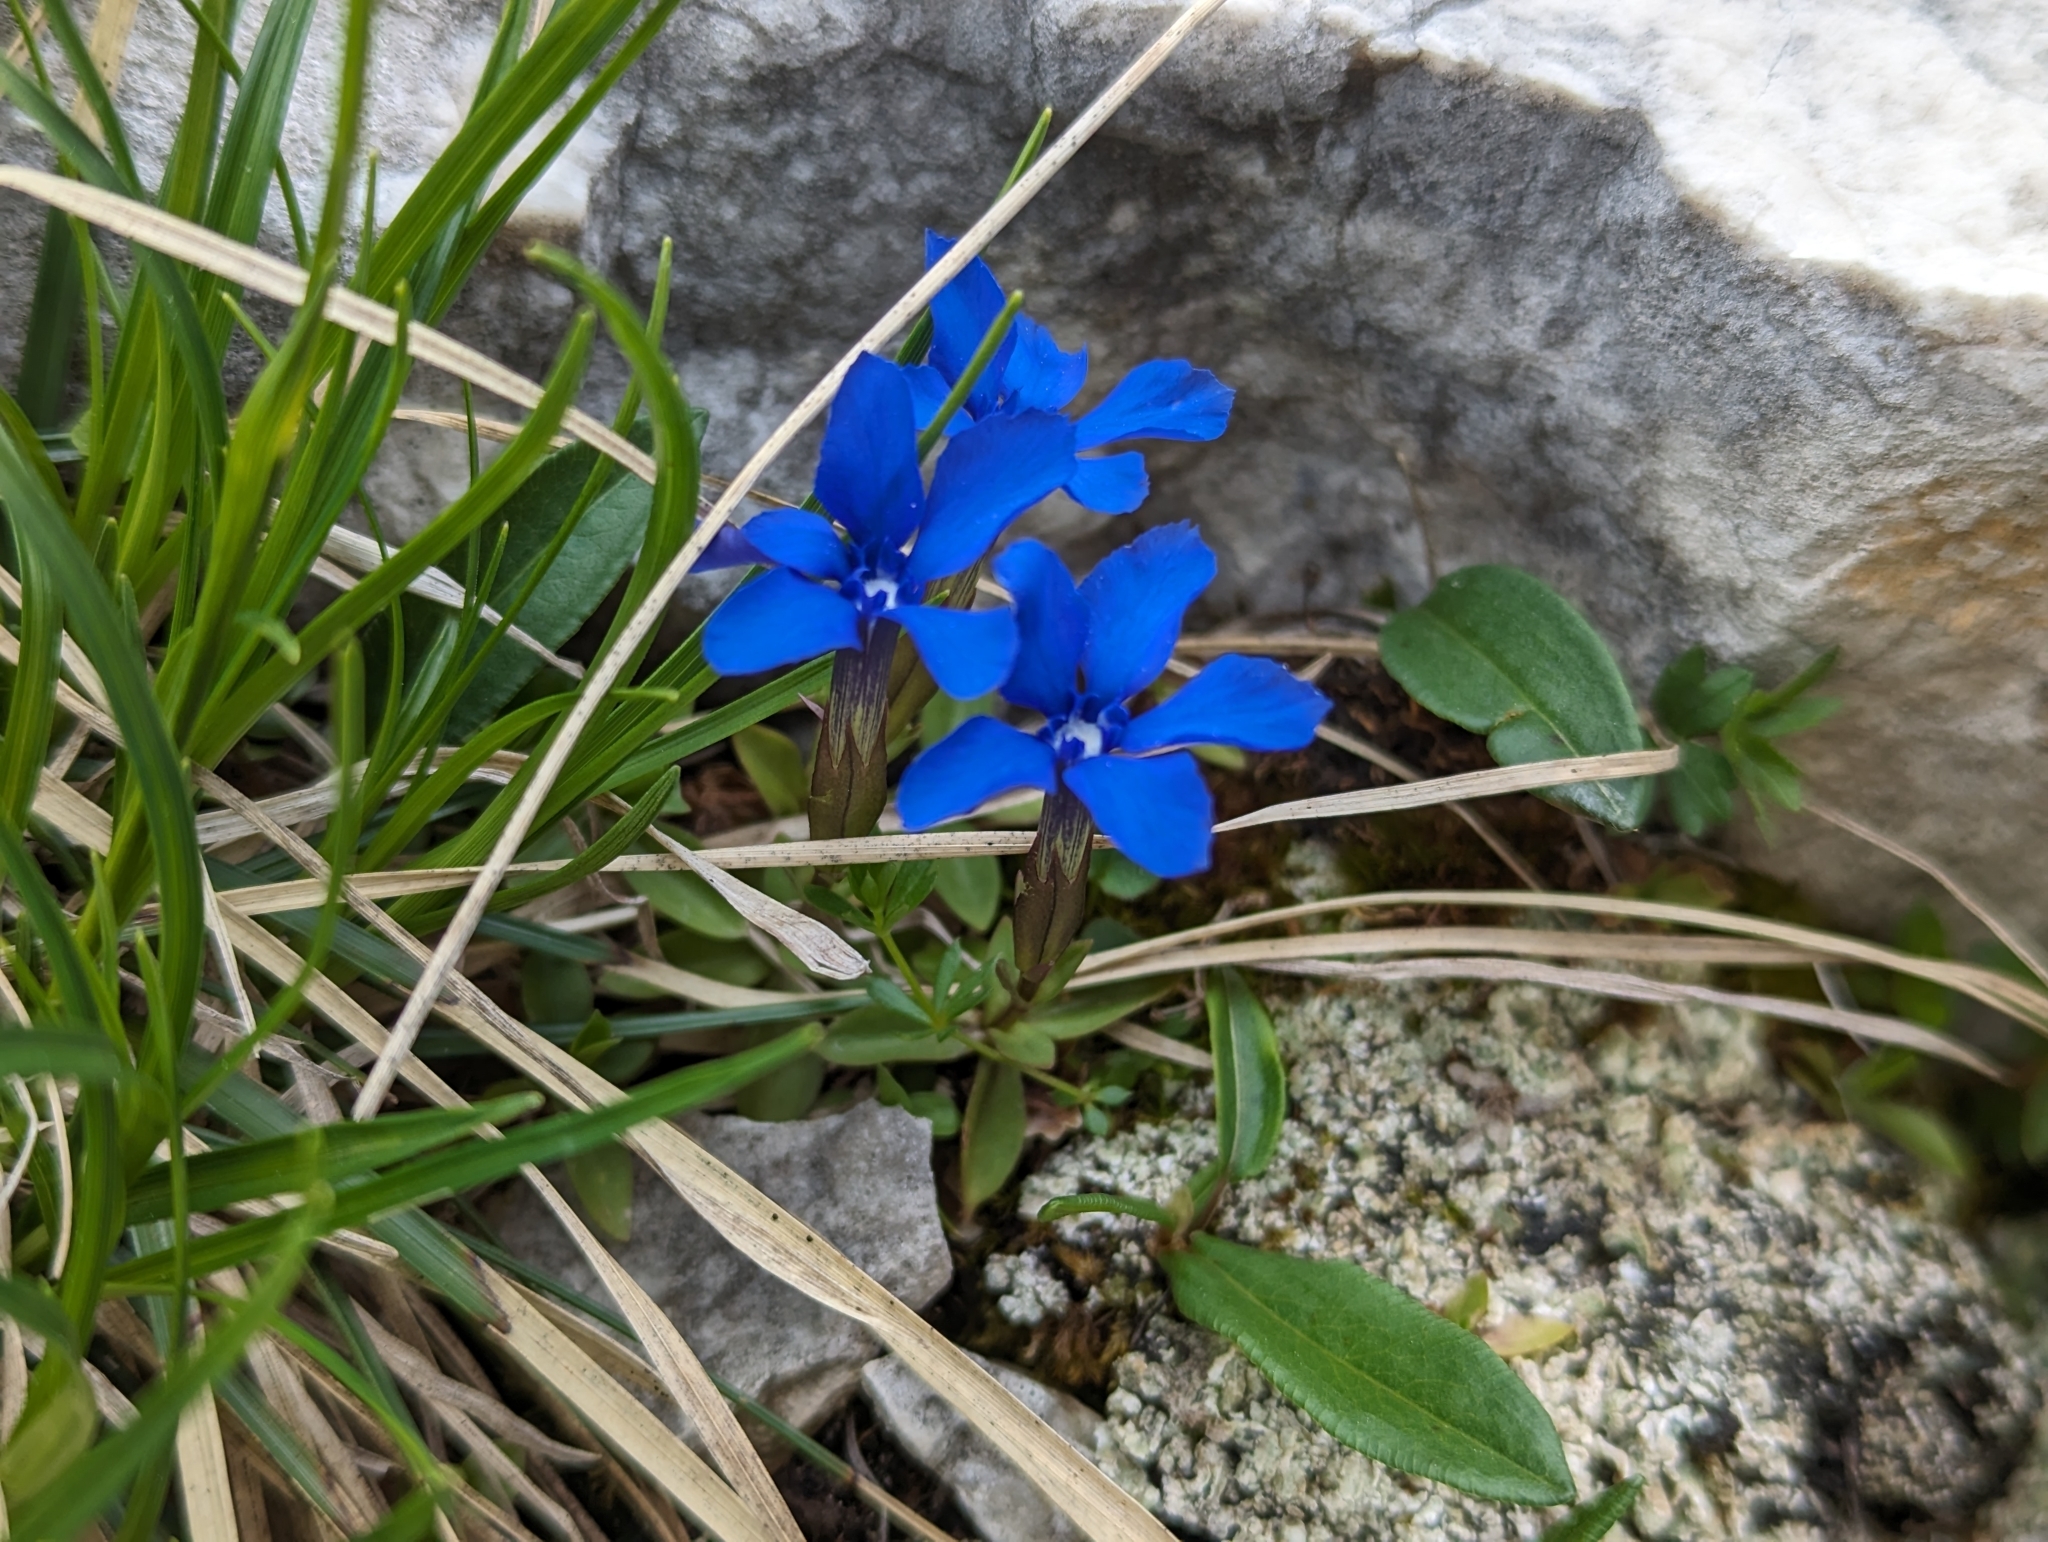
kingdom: Plantae
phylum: Tracheophyta
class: Magnoliopsida
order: Gentianales
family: Gentianaceae
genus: Gentiana
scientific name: Gentiana verna
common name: Spring gentian
